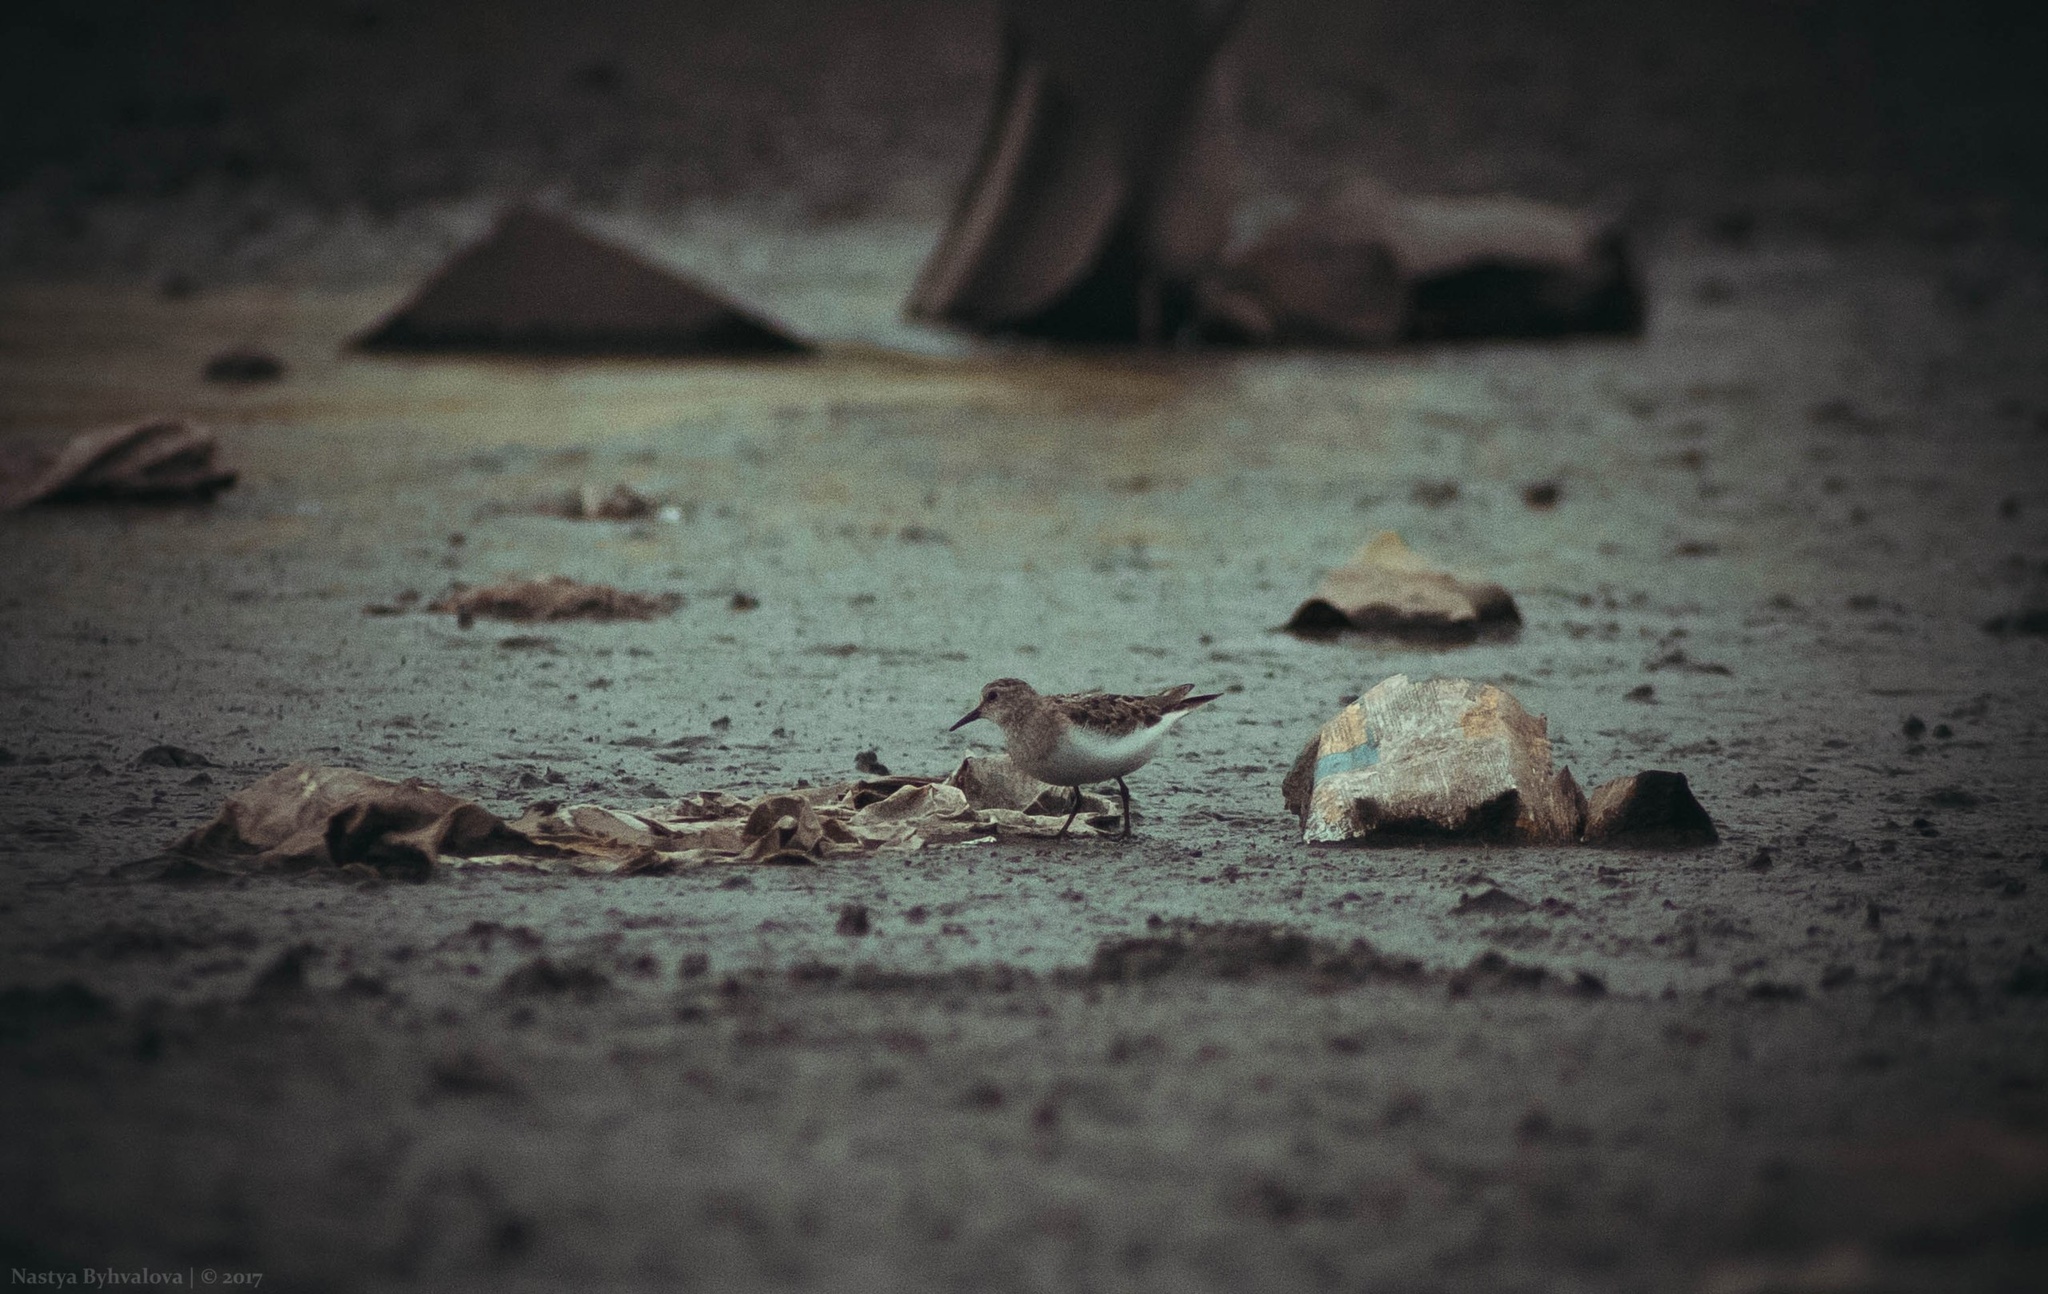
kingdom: Animalia
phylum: Chordata
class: Aves
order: Charadriiformes
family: Scolopacidae
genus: Calidris
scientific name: Calidris temminckii
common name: Temminck's stint
